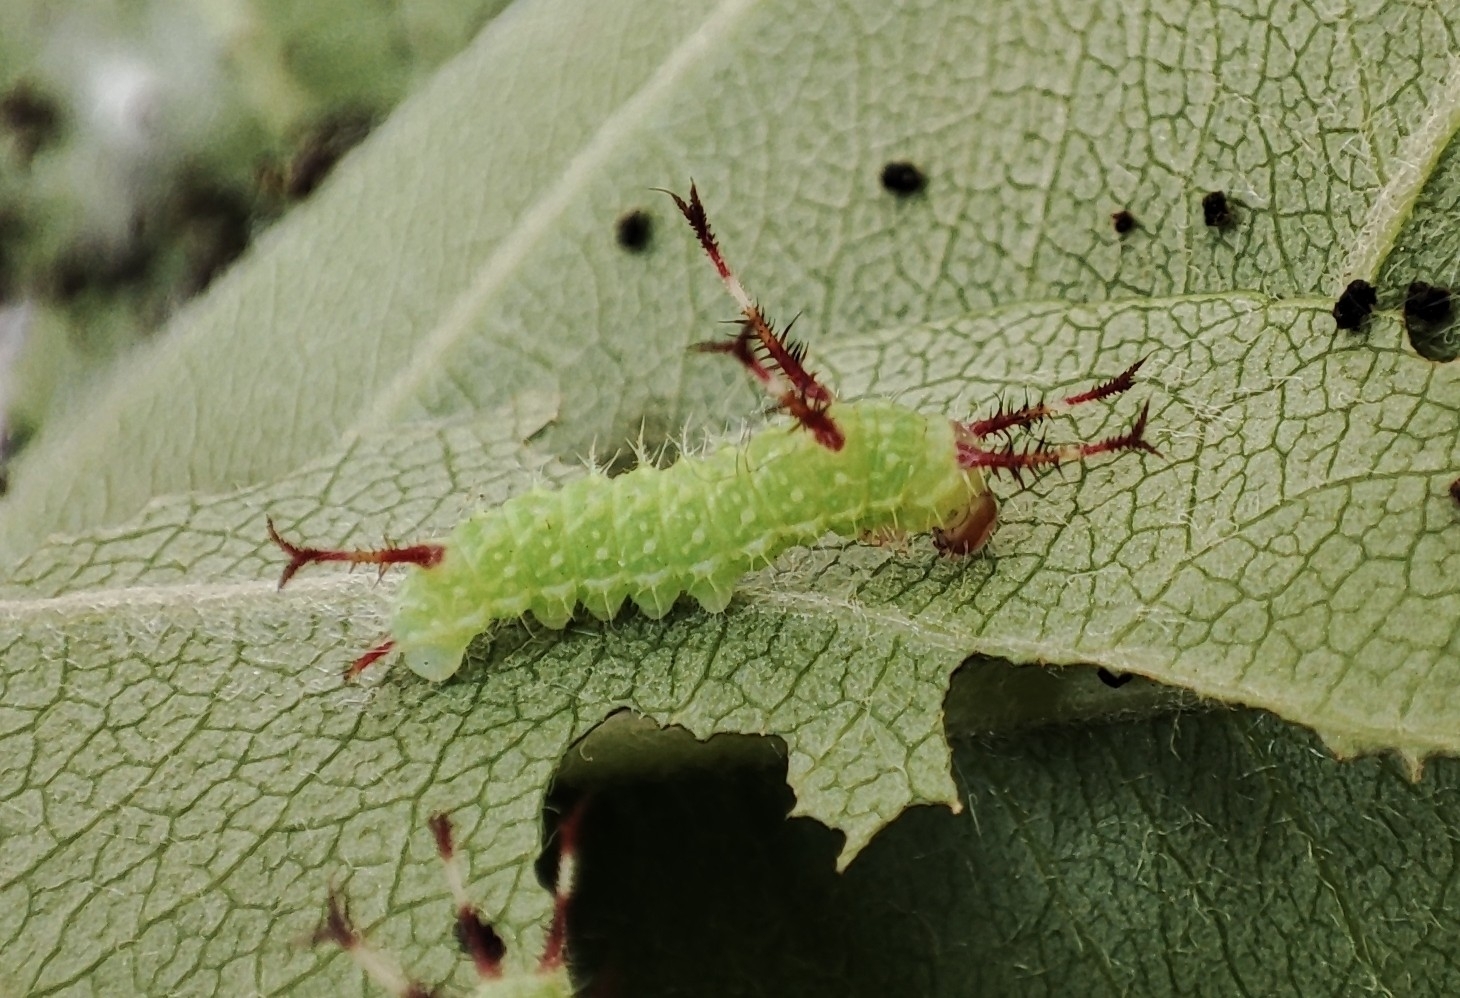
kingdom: Animalia
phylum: Arthropoda
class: Insecta
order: Lepidoptera
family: Saturniidae
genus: Aglia
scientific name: Aglia tau
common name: Tau emperor
